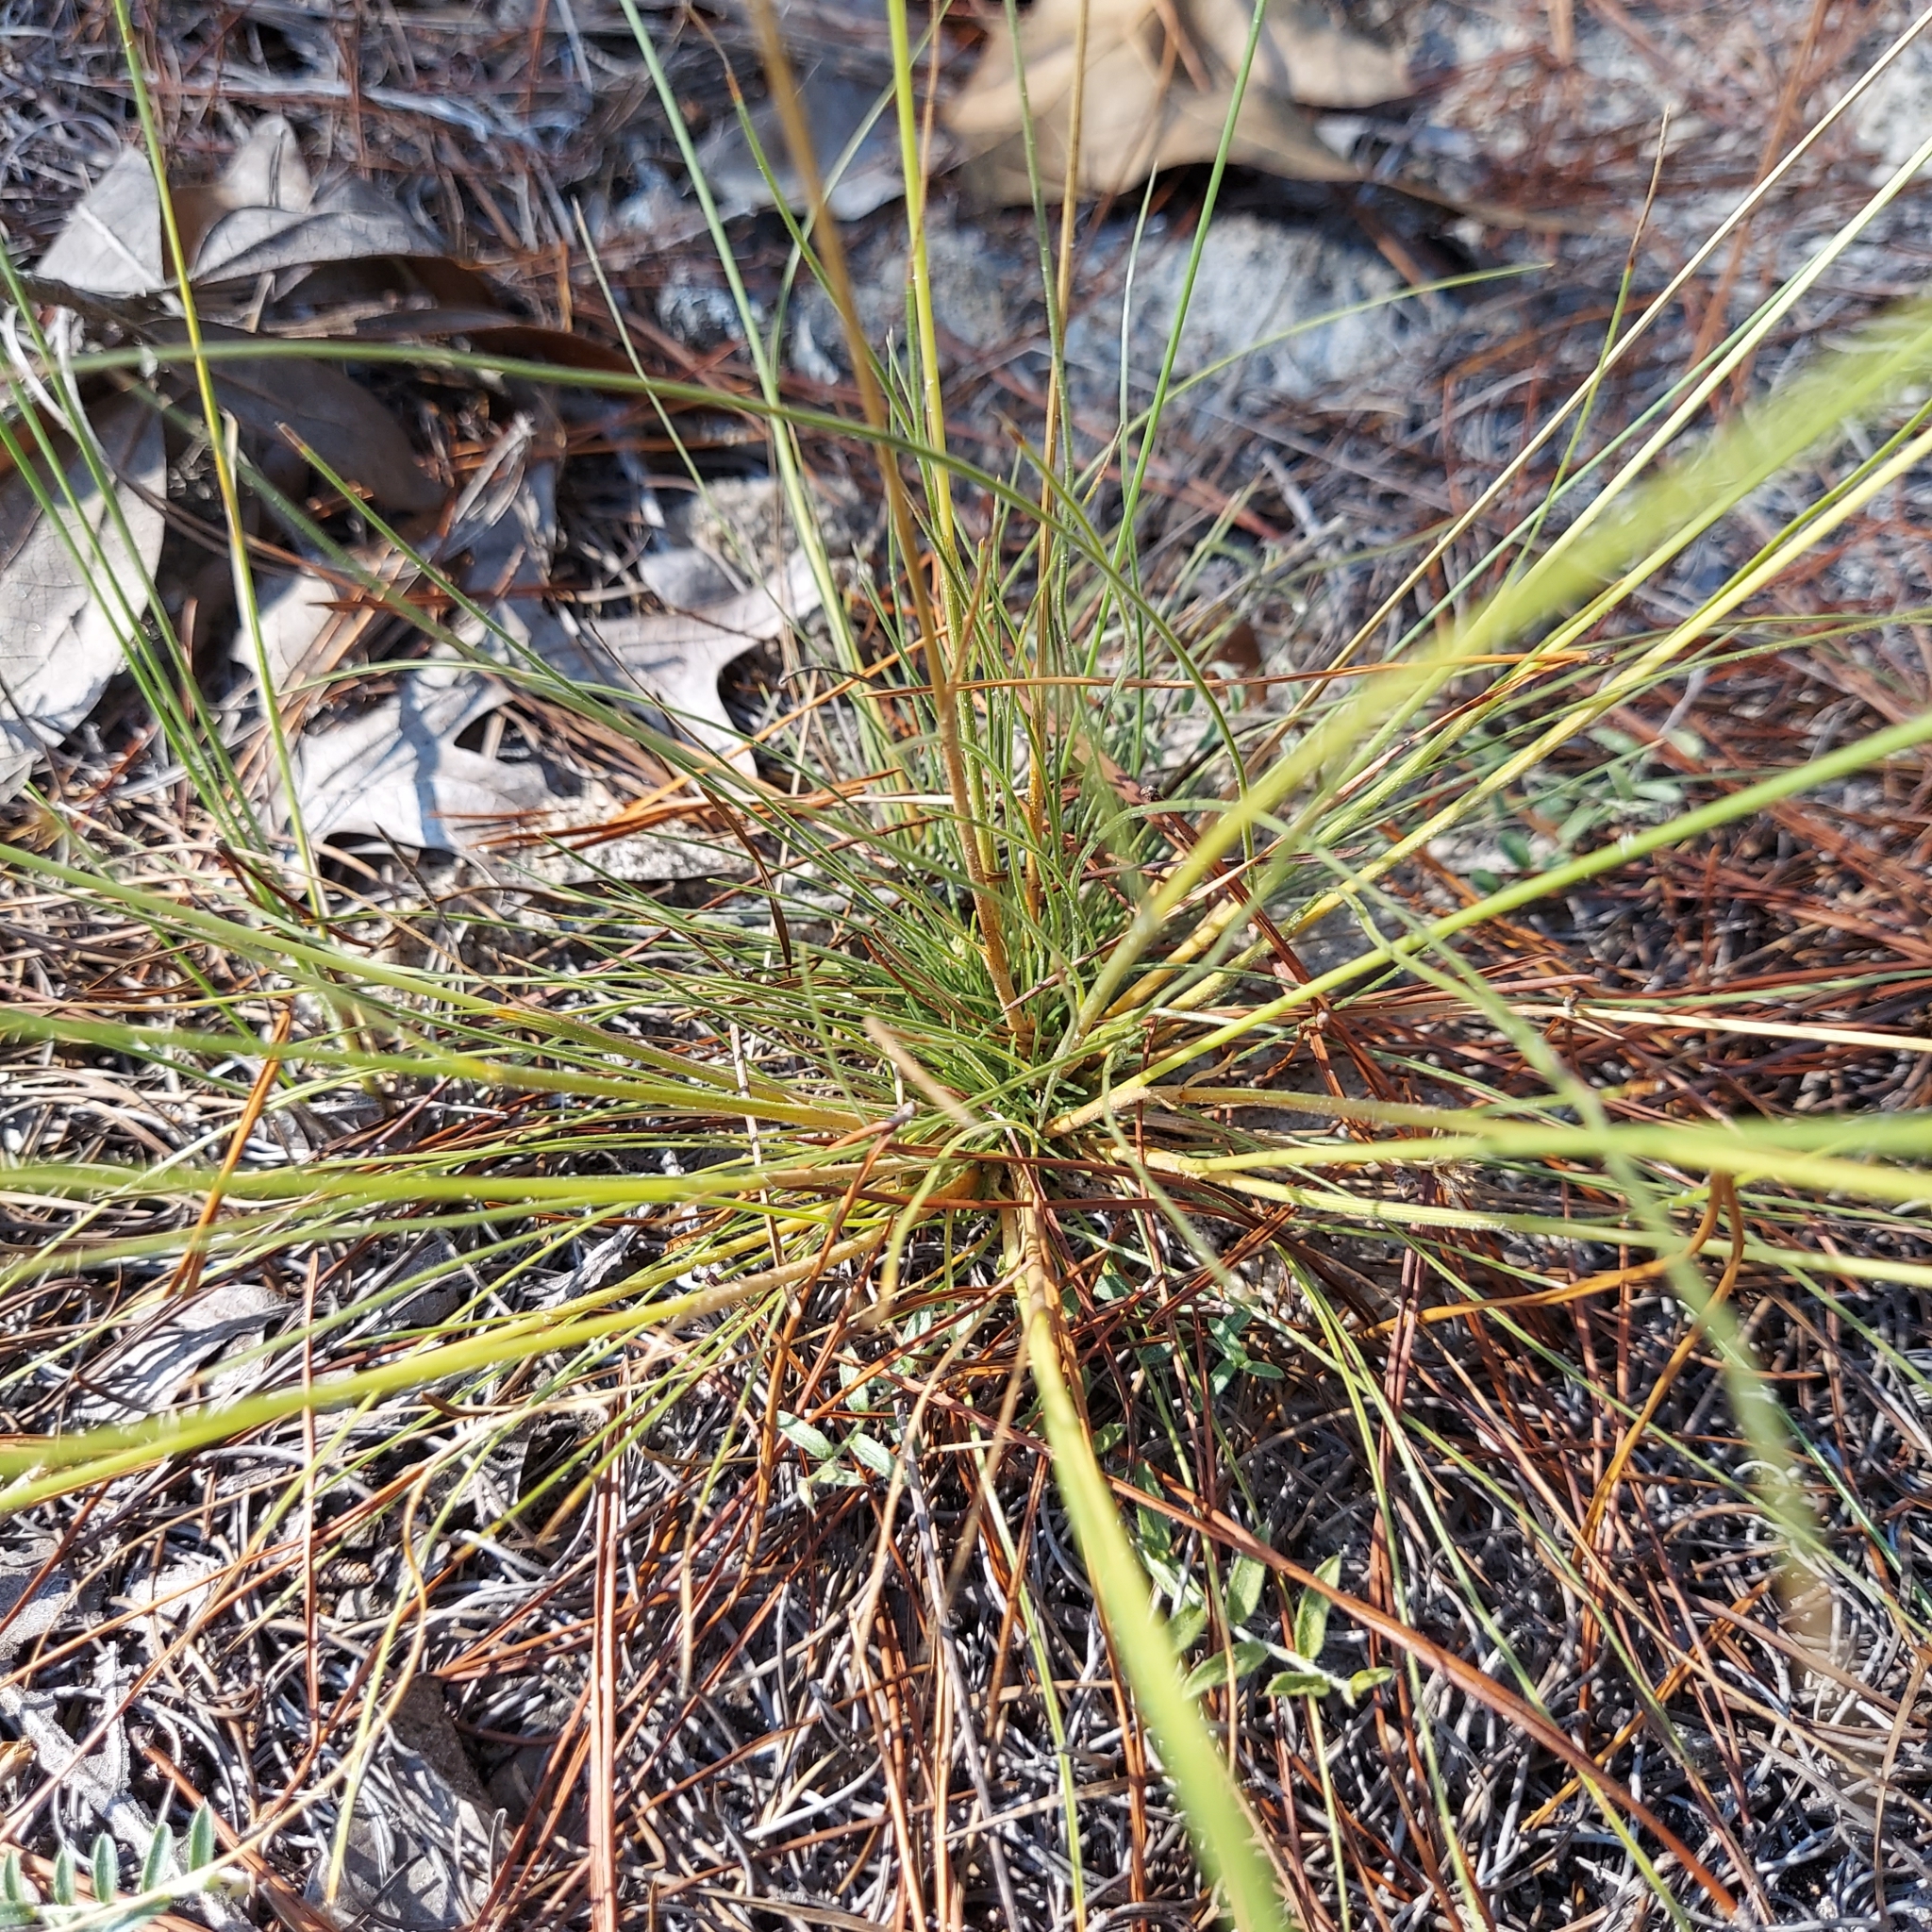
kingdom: Plantae
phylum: Tracheophyta
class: Liliopsida
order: Poales
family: Cyperaceae
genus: Bulbostylis
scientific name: Bulbostylis warei
